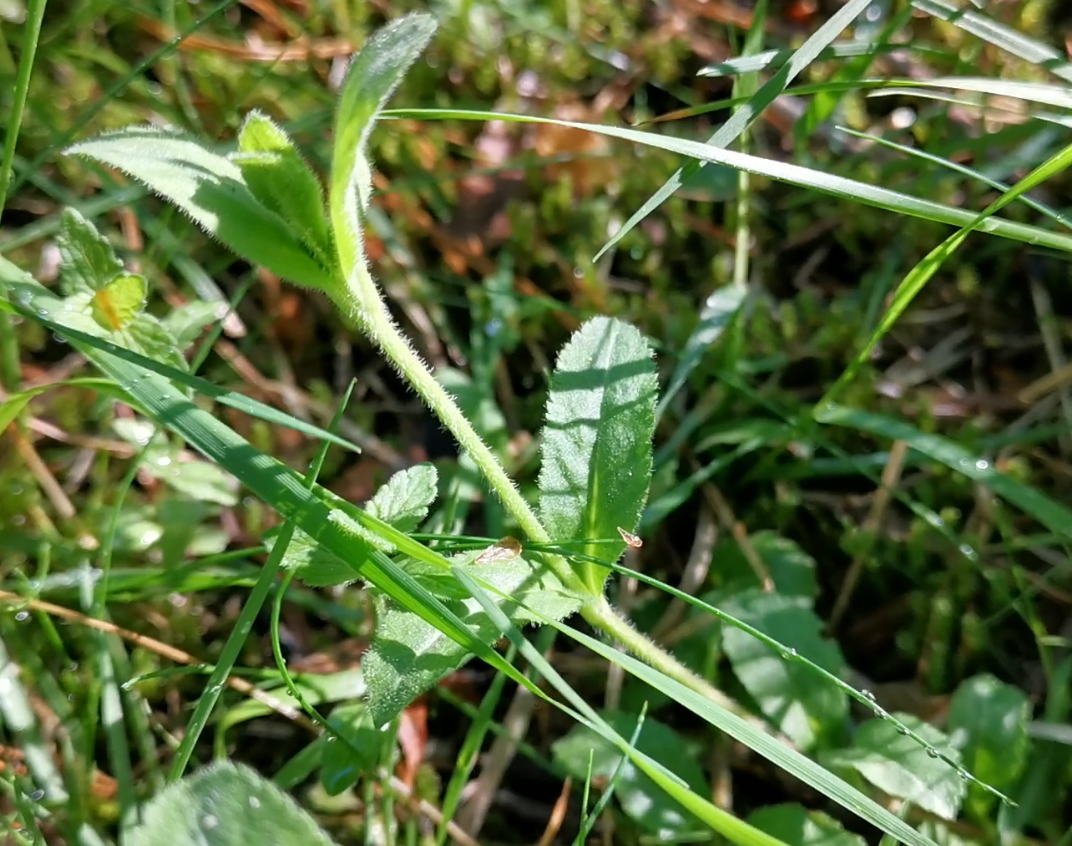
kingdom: Plantae
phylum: Tracheophyta
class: Magnoliopsida
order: Lamiales
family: Plantaginaceae
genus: Veronica
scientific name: Veronica officinalis
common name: Common speedwell
